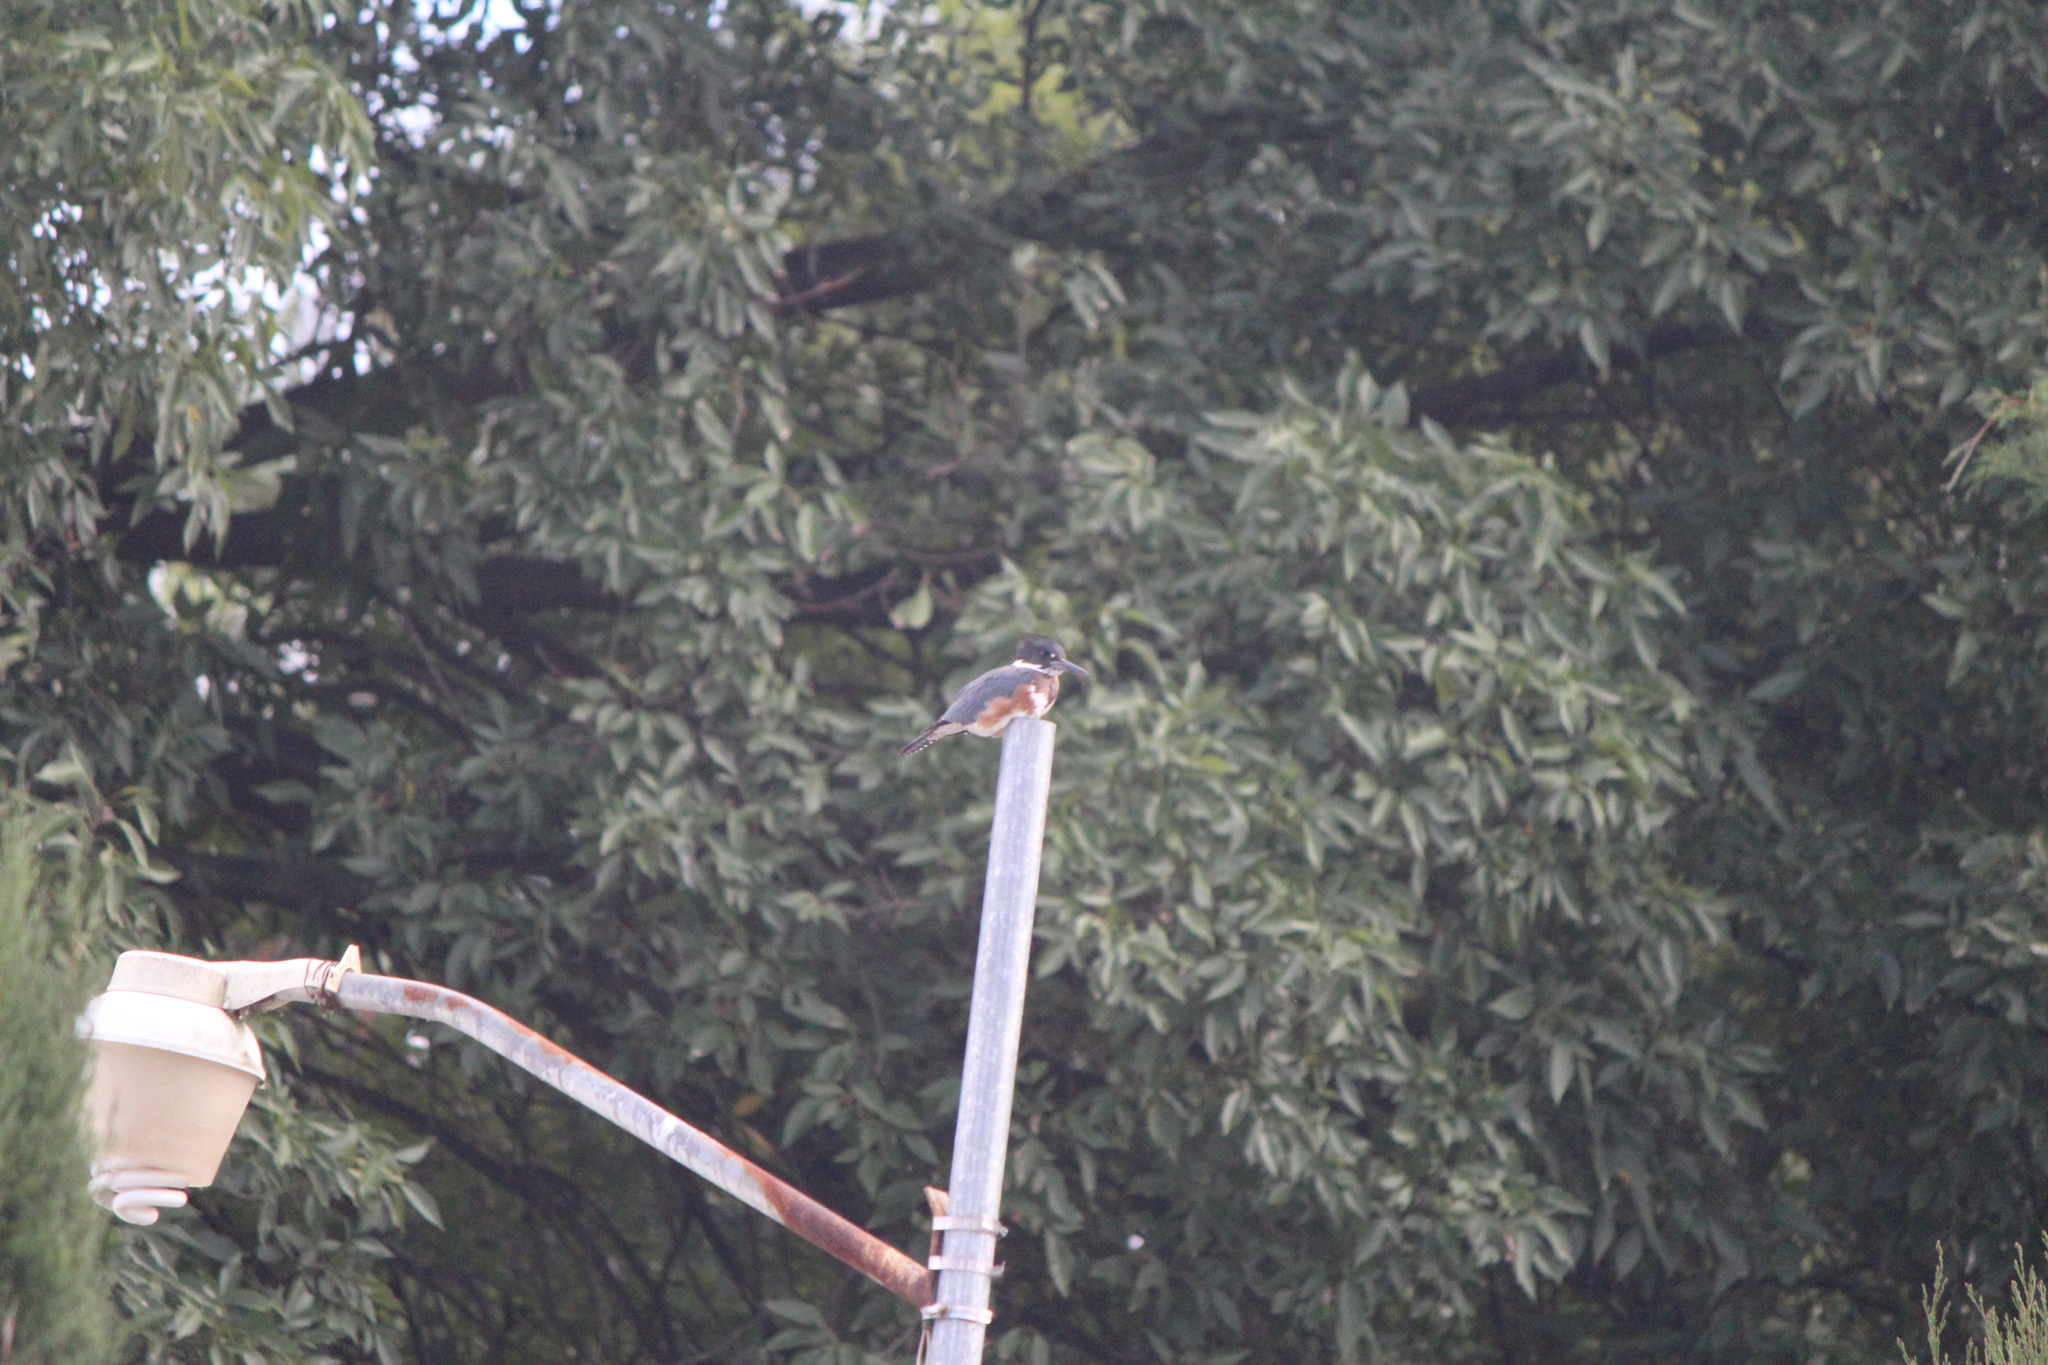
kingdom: Animalia
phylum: Chordata
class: Aves
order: Coraciiformes
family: Alcedinidae
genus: Megaceryle
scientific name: Megaceryle alcyon
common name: Belted kingfisher
